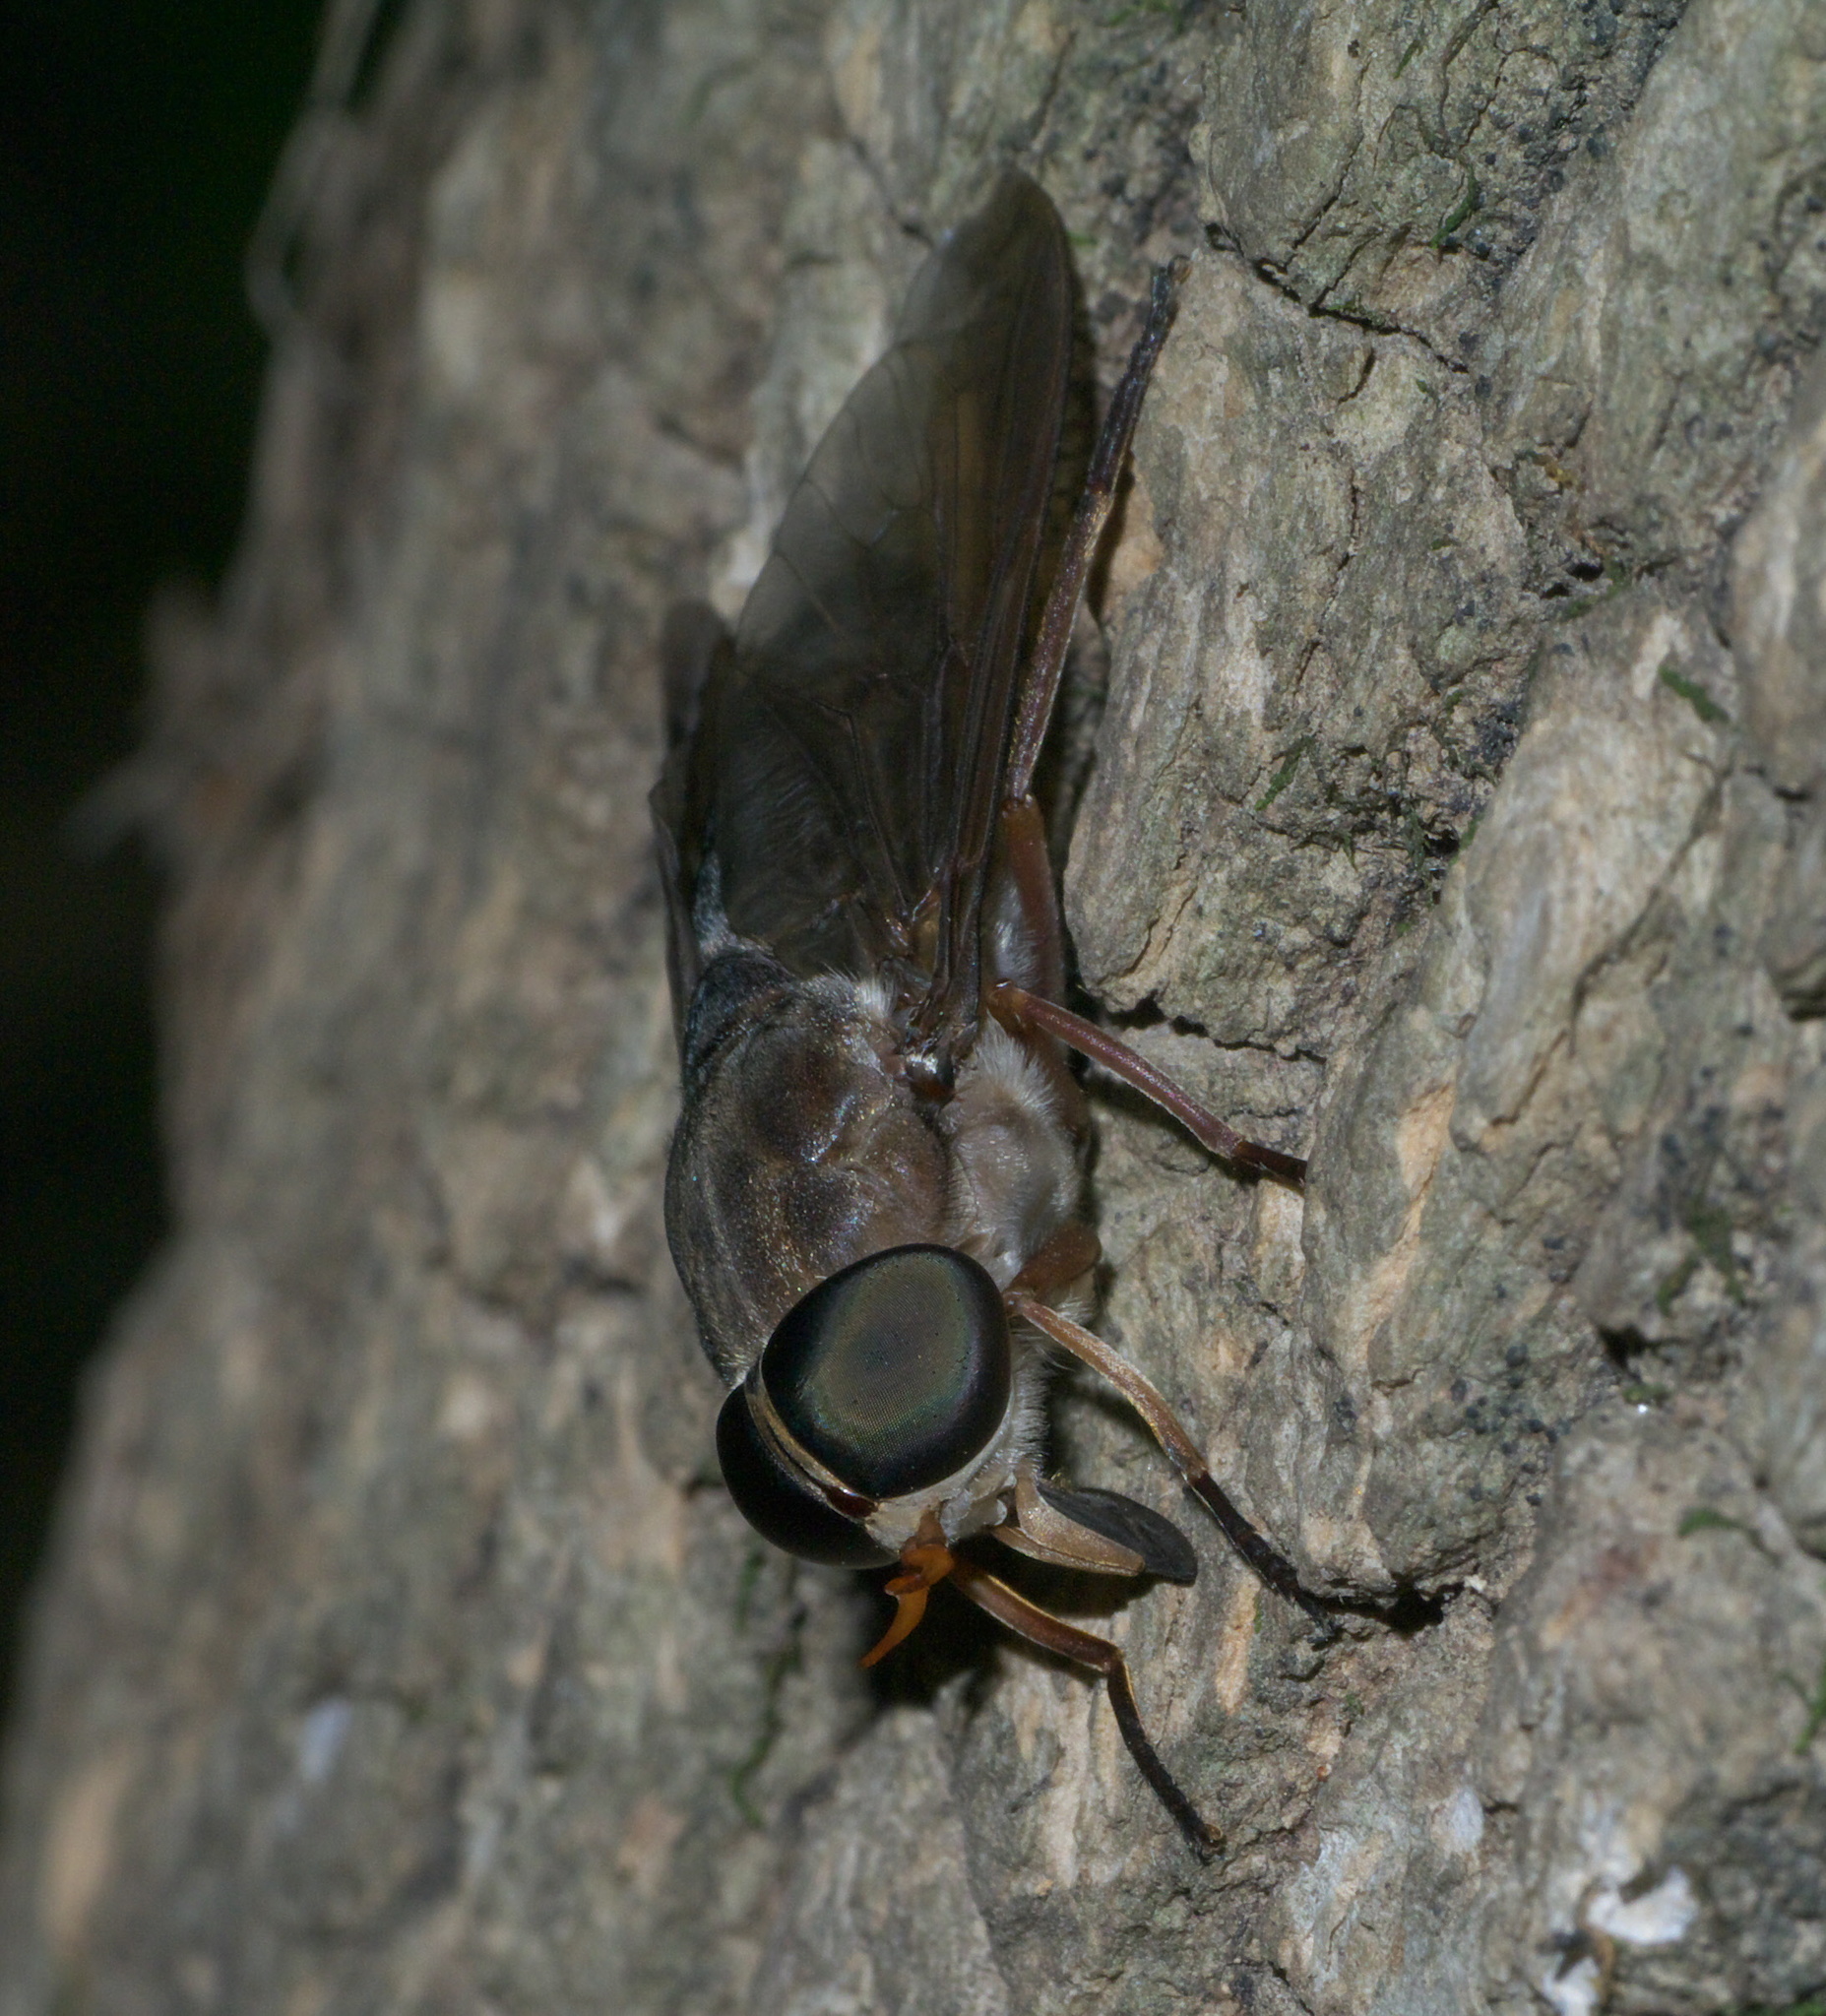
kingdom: Animalia
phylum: Arthropoda
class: Insecta
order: Diptera
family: Tabanidae
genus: Tabanus
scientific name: Tabanus calens
